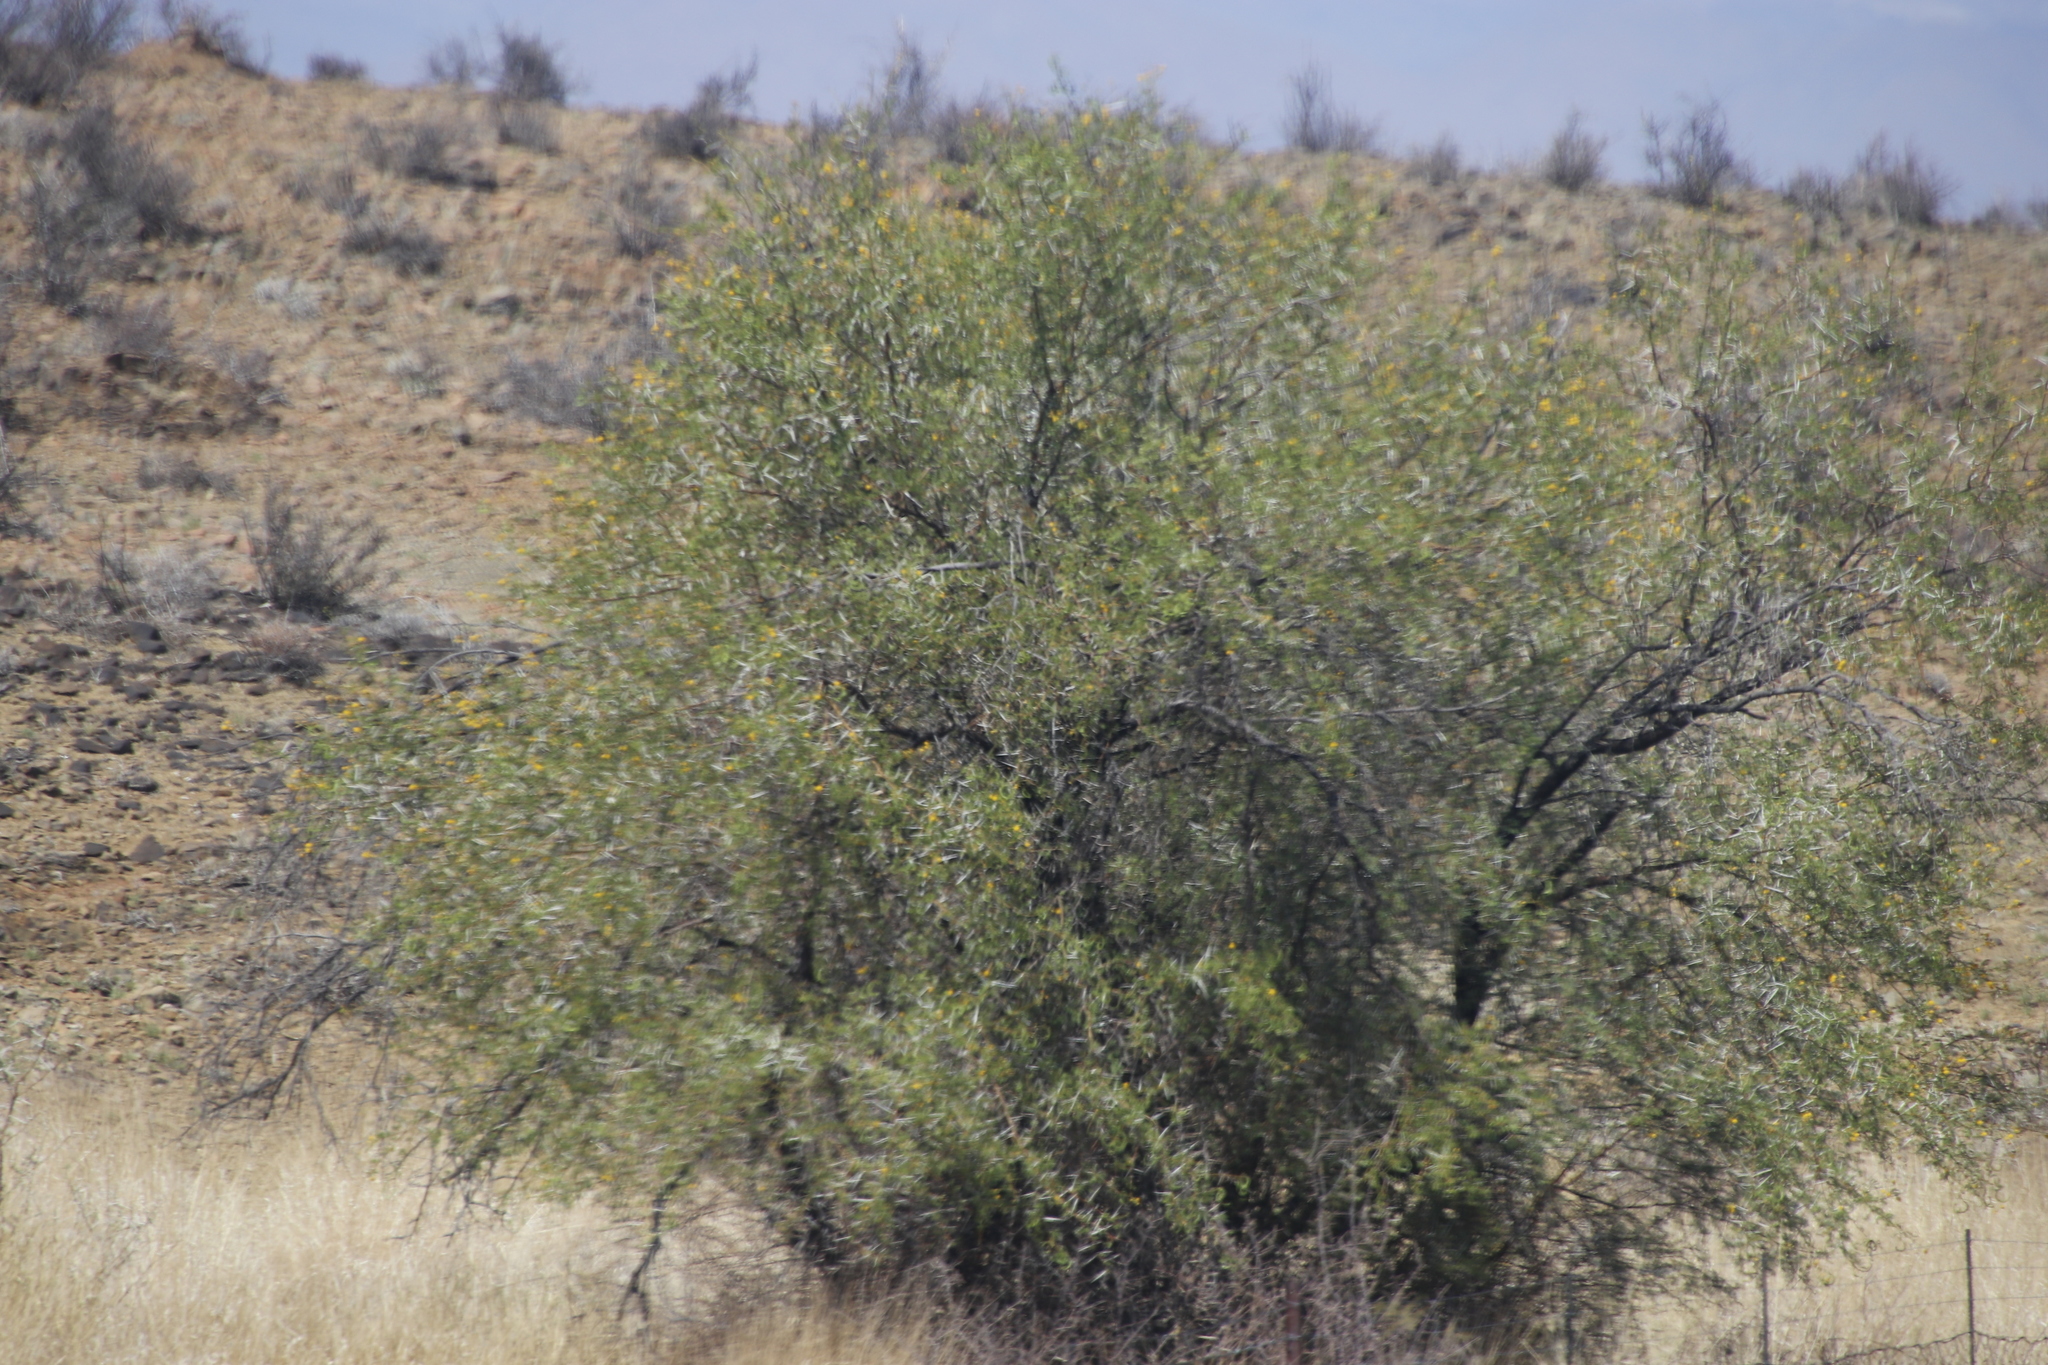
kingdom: Plantae
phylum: Tracheophyta
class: Magnoliopsida
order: Fabales
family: Fabaceae
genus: Vachellia
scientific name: Vachellia karroo
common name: Sweet thorn
